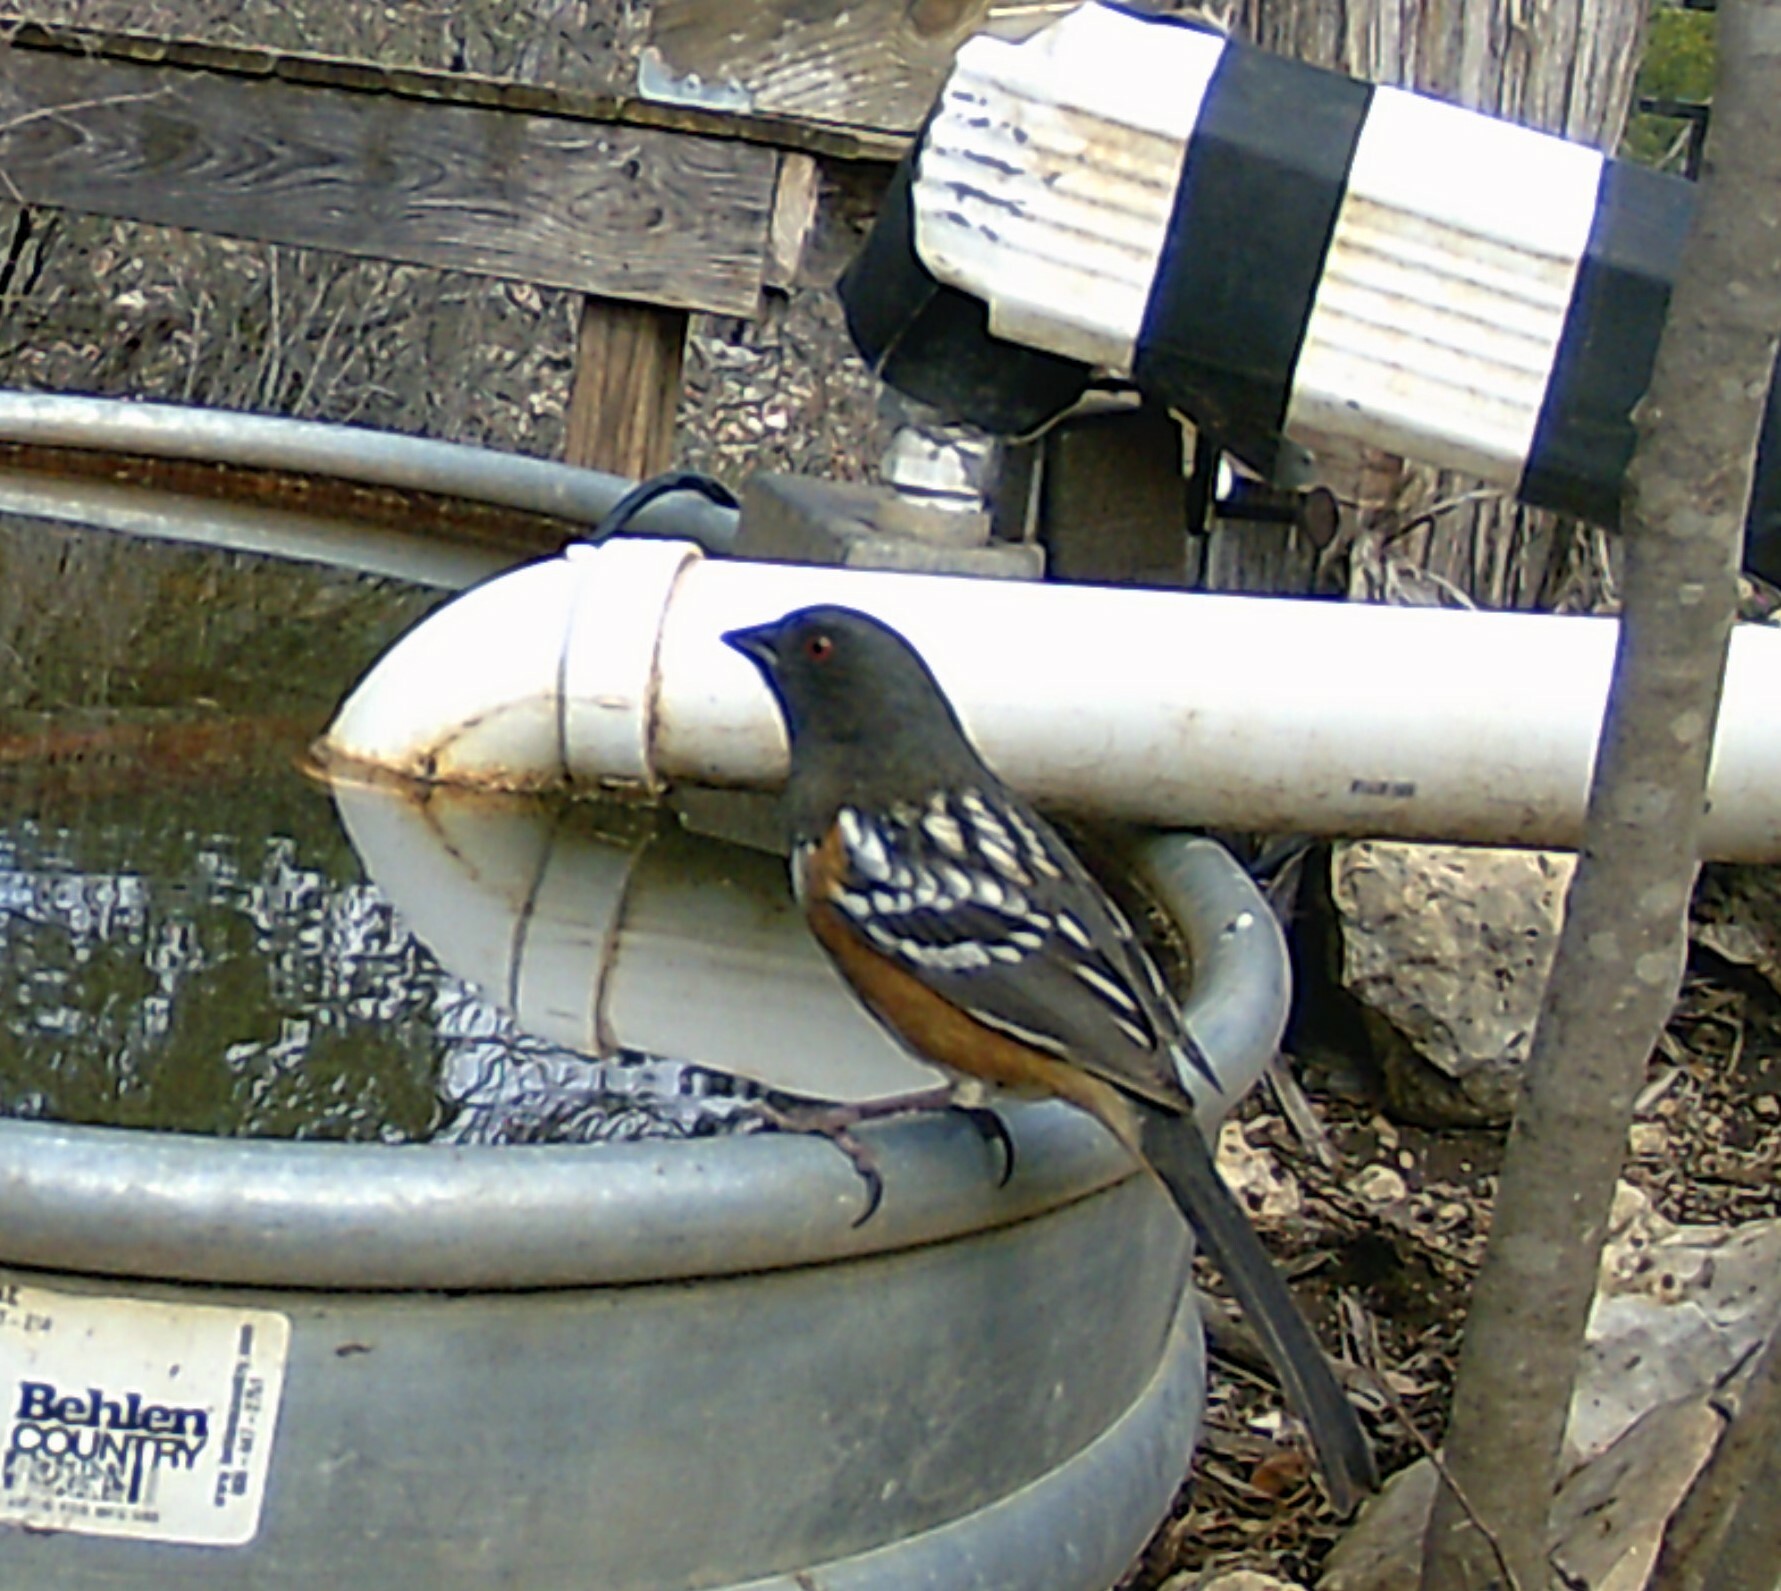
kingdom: Animalia
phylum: Chordata
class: Aves
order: Passeriformes
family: Passerellidae
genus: Pipilo
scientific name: Pipilo maculatus
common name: Spotted towhee
